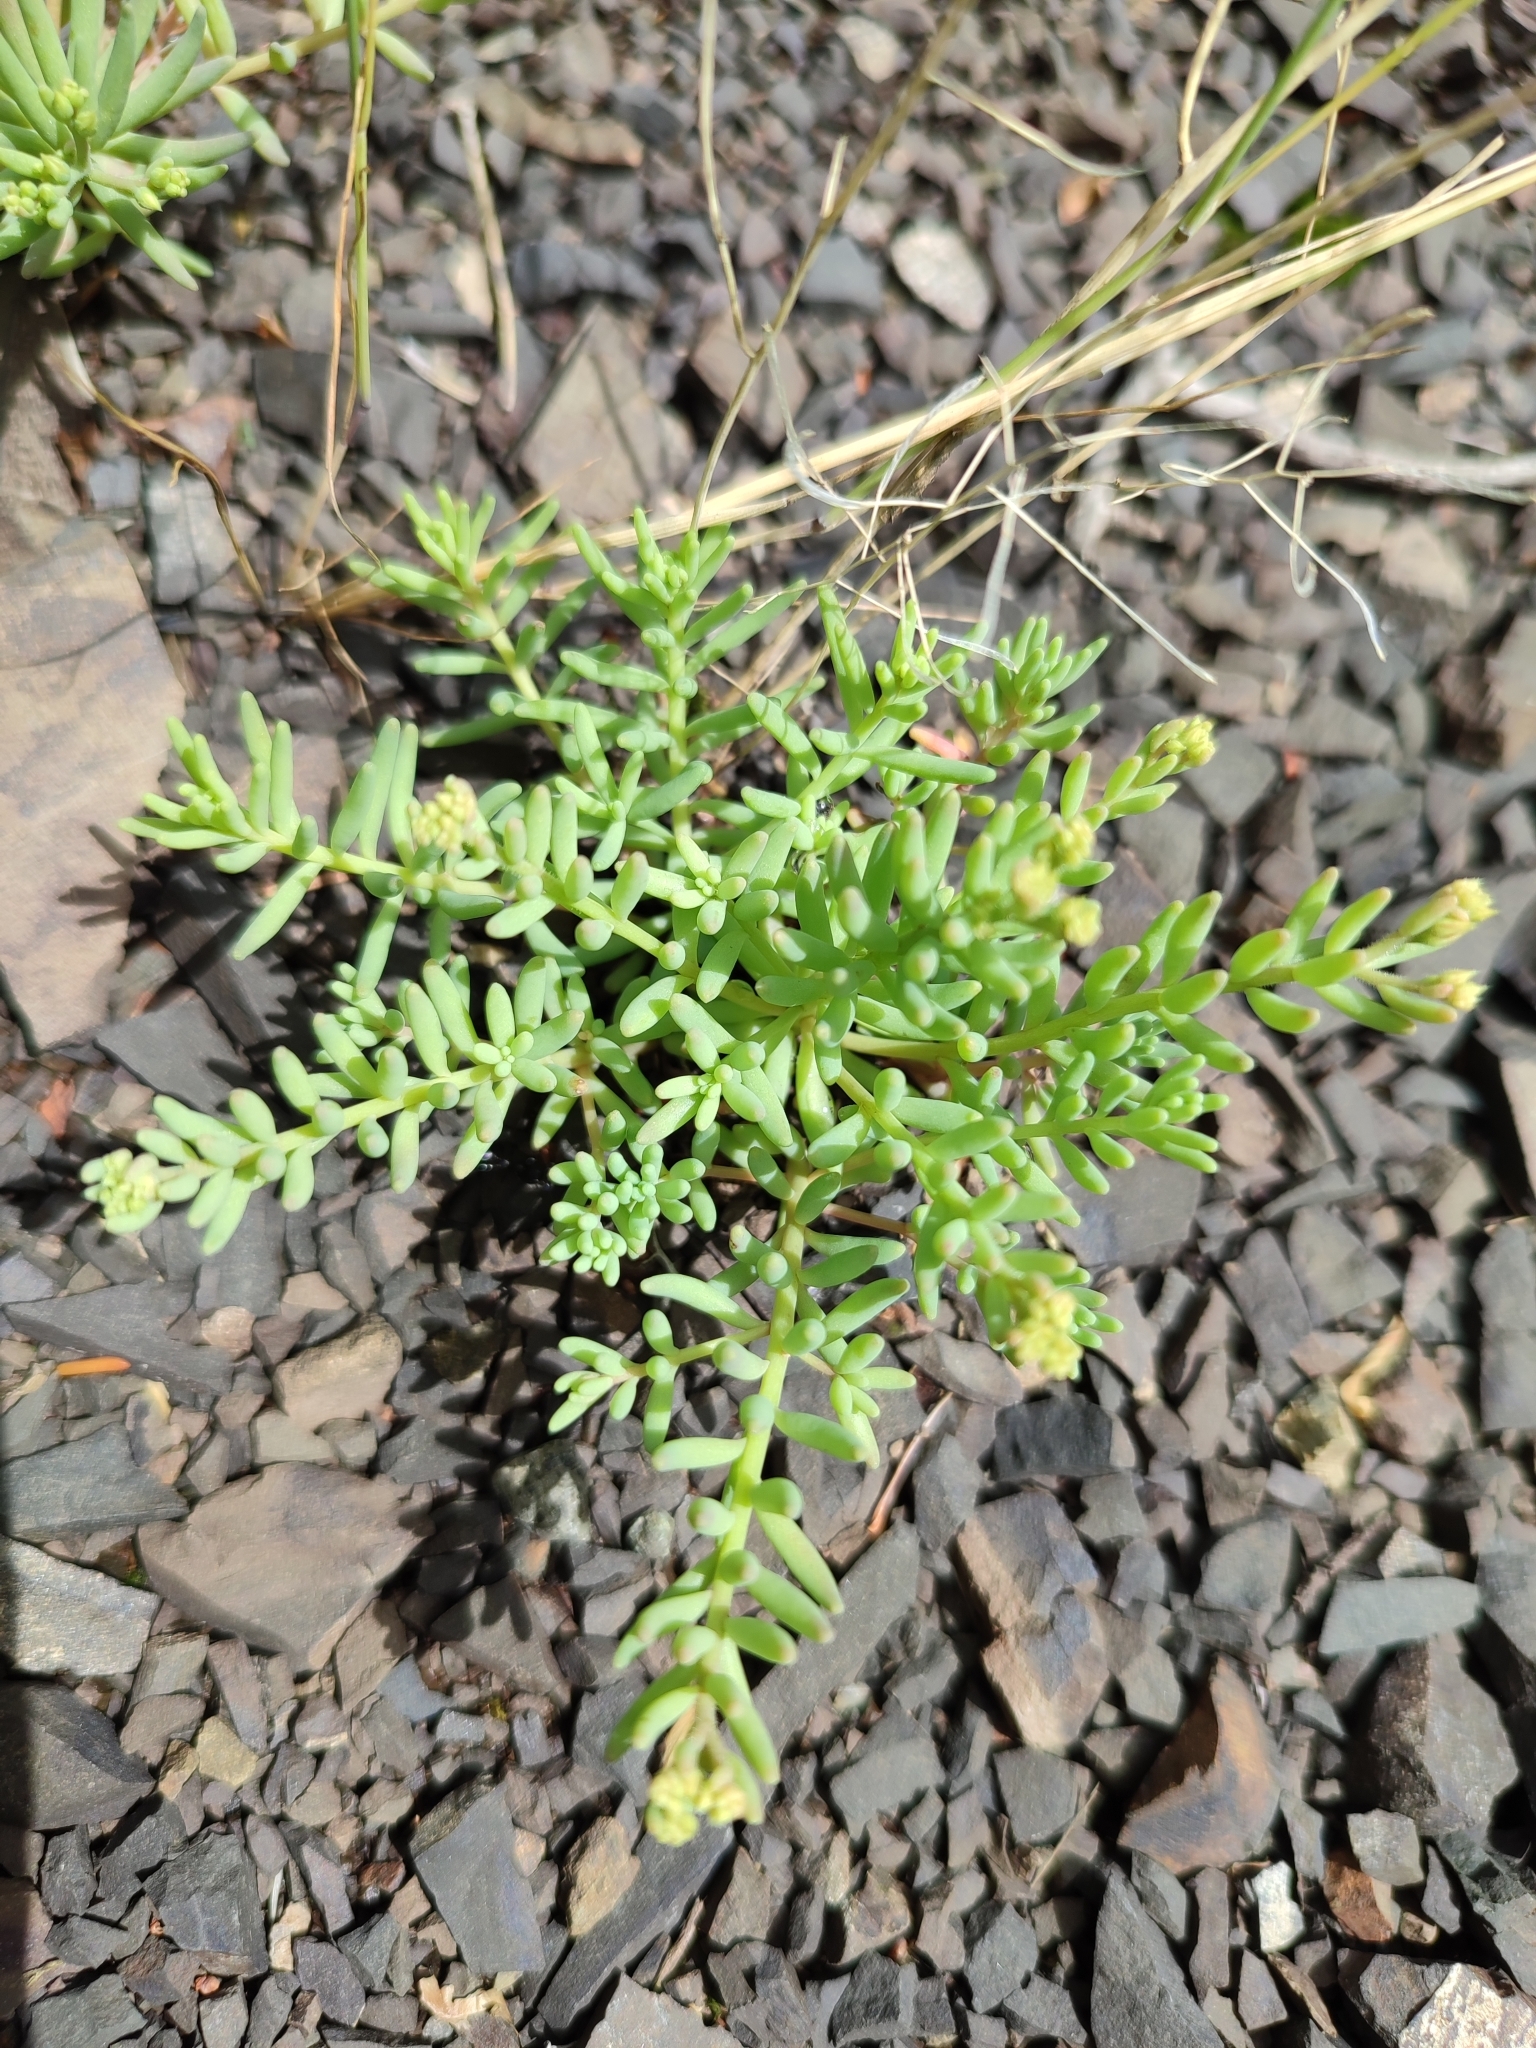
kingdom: Plantae
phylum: Tracheophyta
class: Magnoliopsida
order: Saxifragales
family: Crassulaceae
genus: Sedum
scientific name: Sedum pallidum
